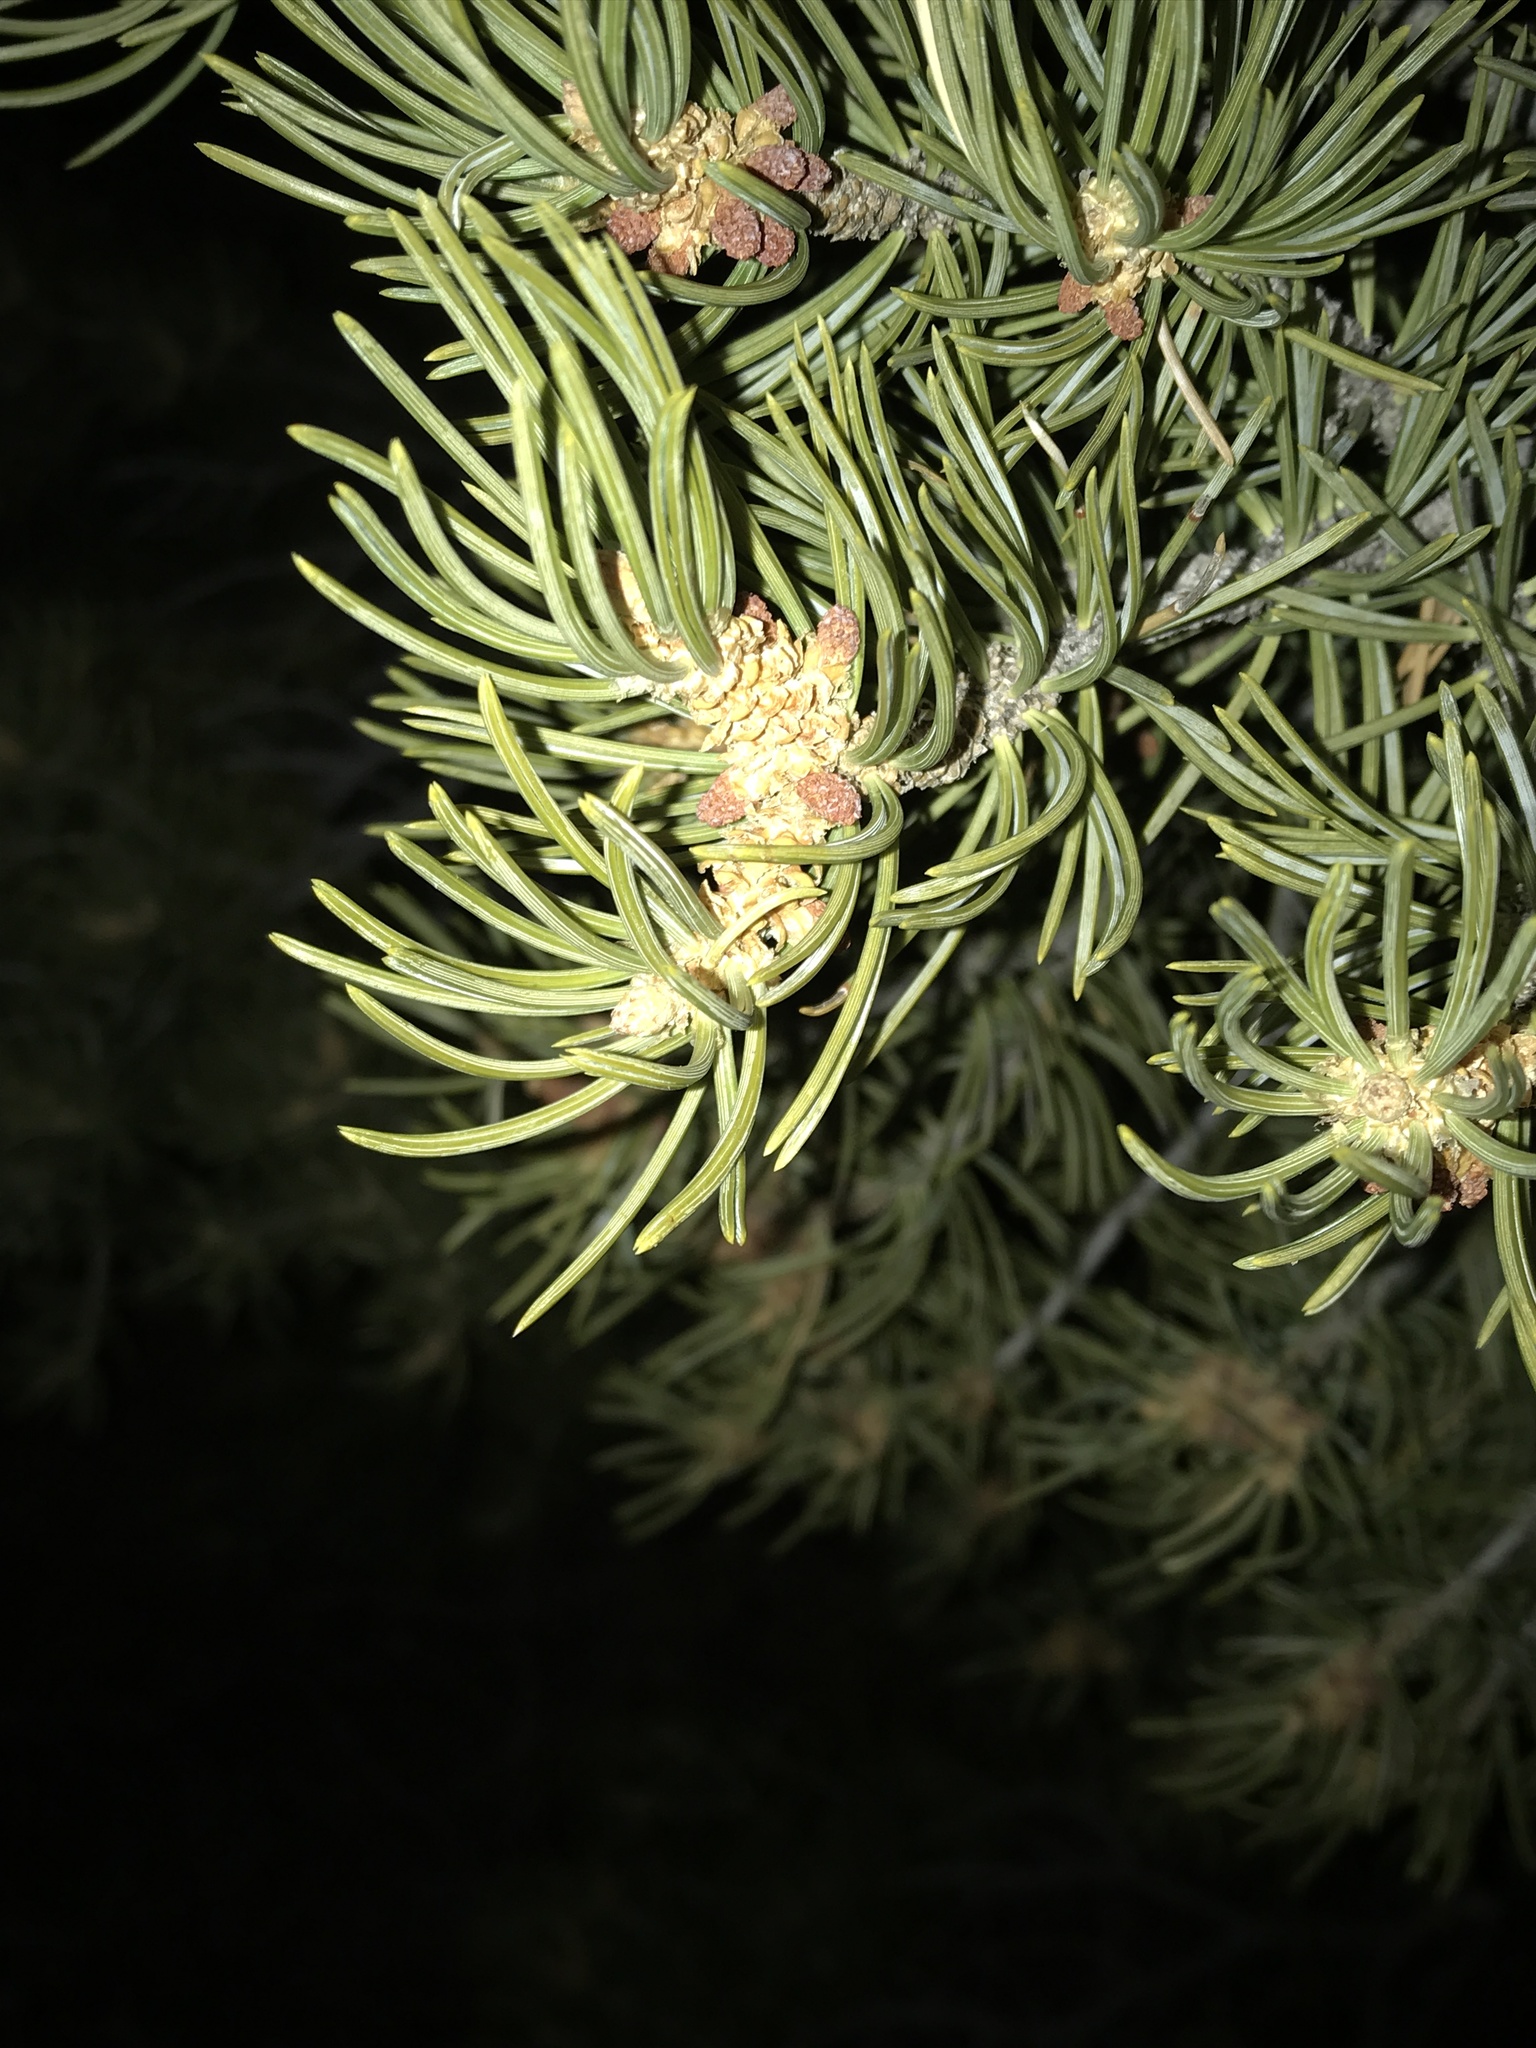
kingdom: Plantae
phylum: Tracheophyta
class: Pinopsida
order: Pinales
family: Pinaceae
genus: Pinus
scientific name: Pinus edulis
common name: Colorado pinyon
